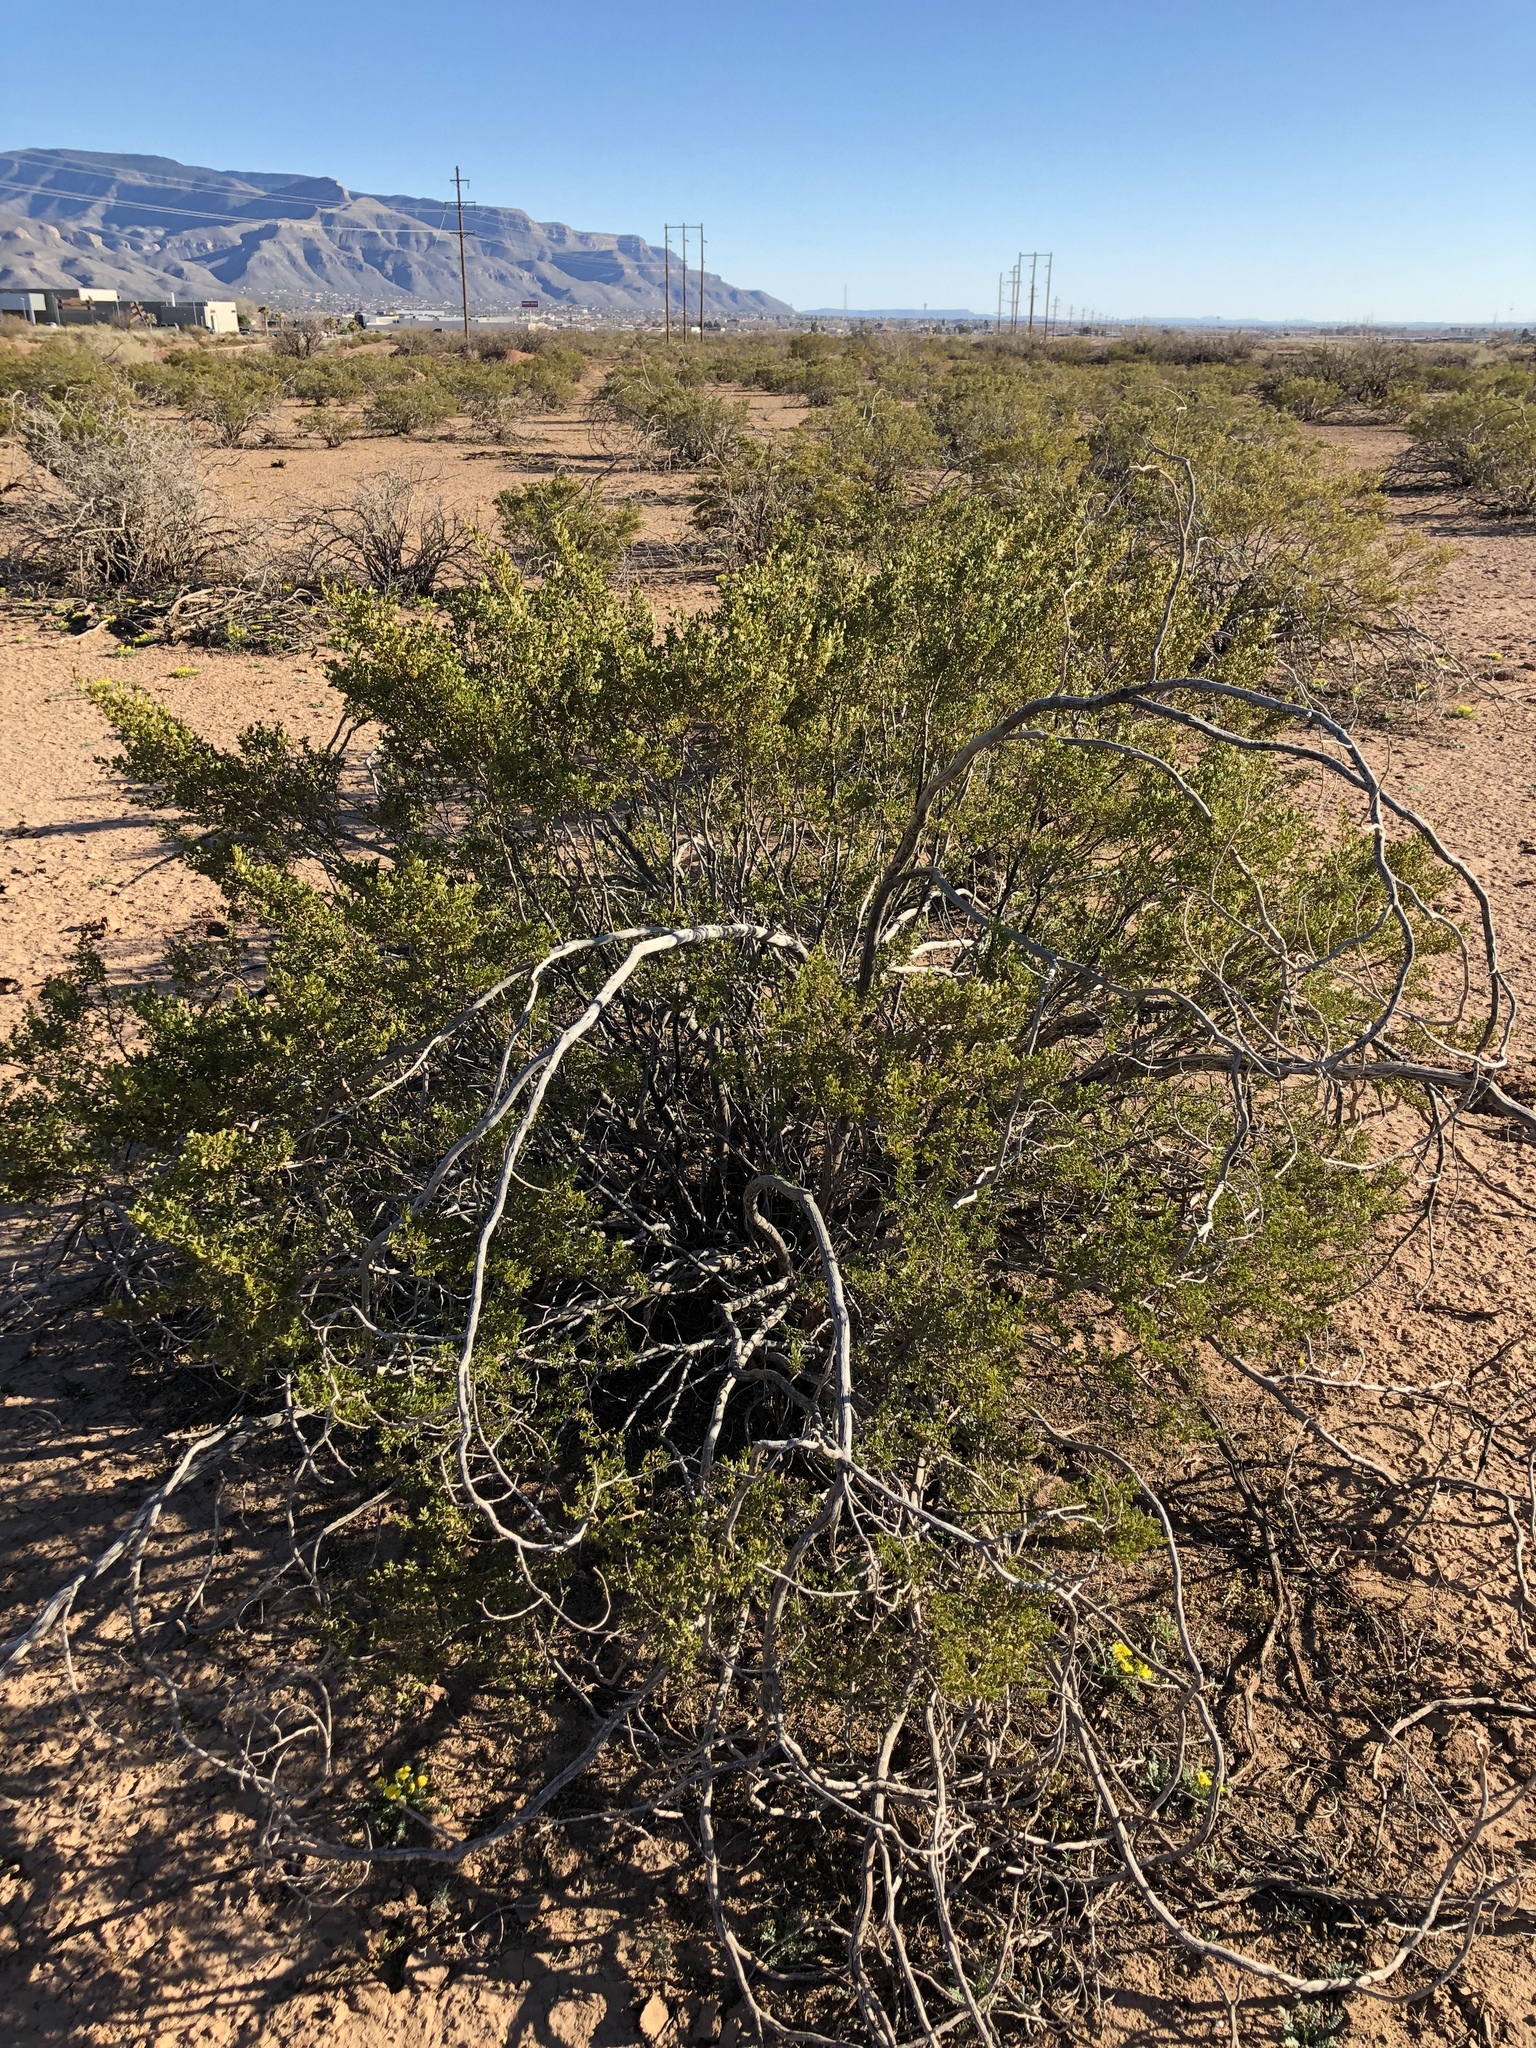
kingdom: Plantae
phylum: Tracheophyta
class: Magnoliopsida
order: Zygophyllales
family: Zygophyllaceae
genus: Larrea
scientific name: Larrea tridentata
